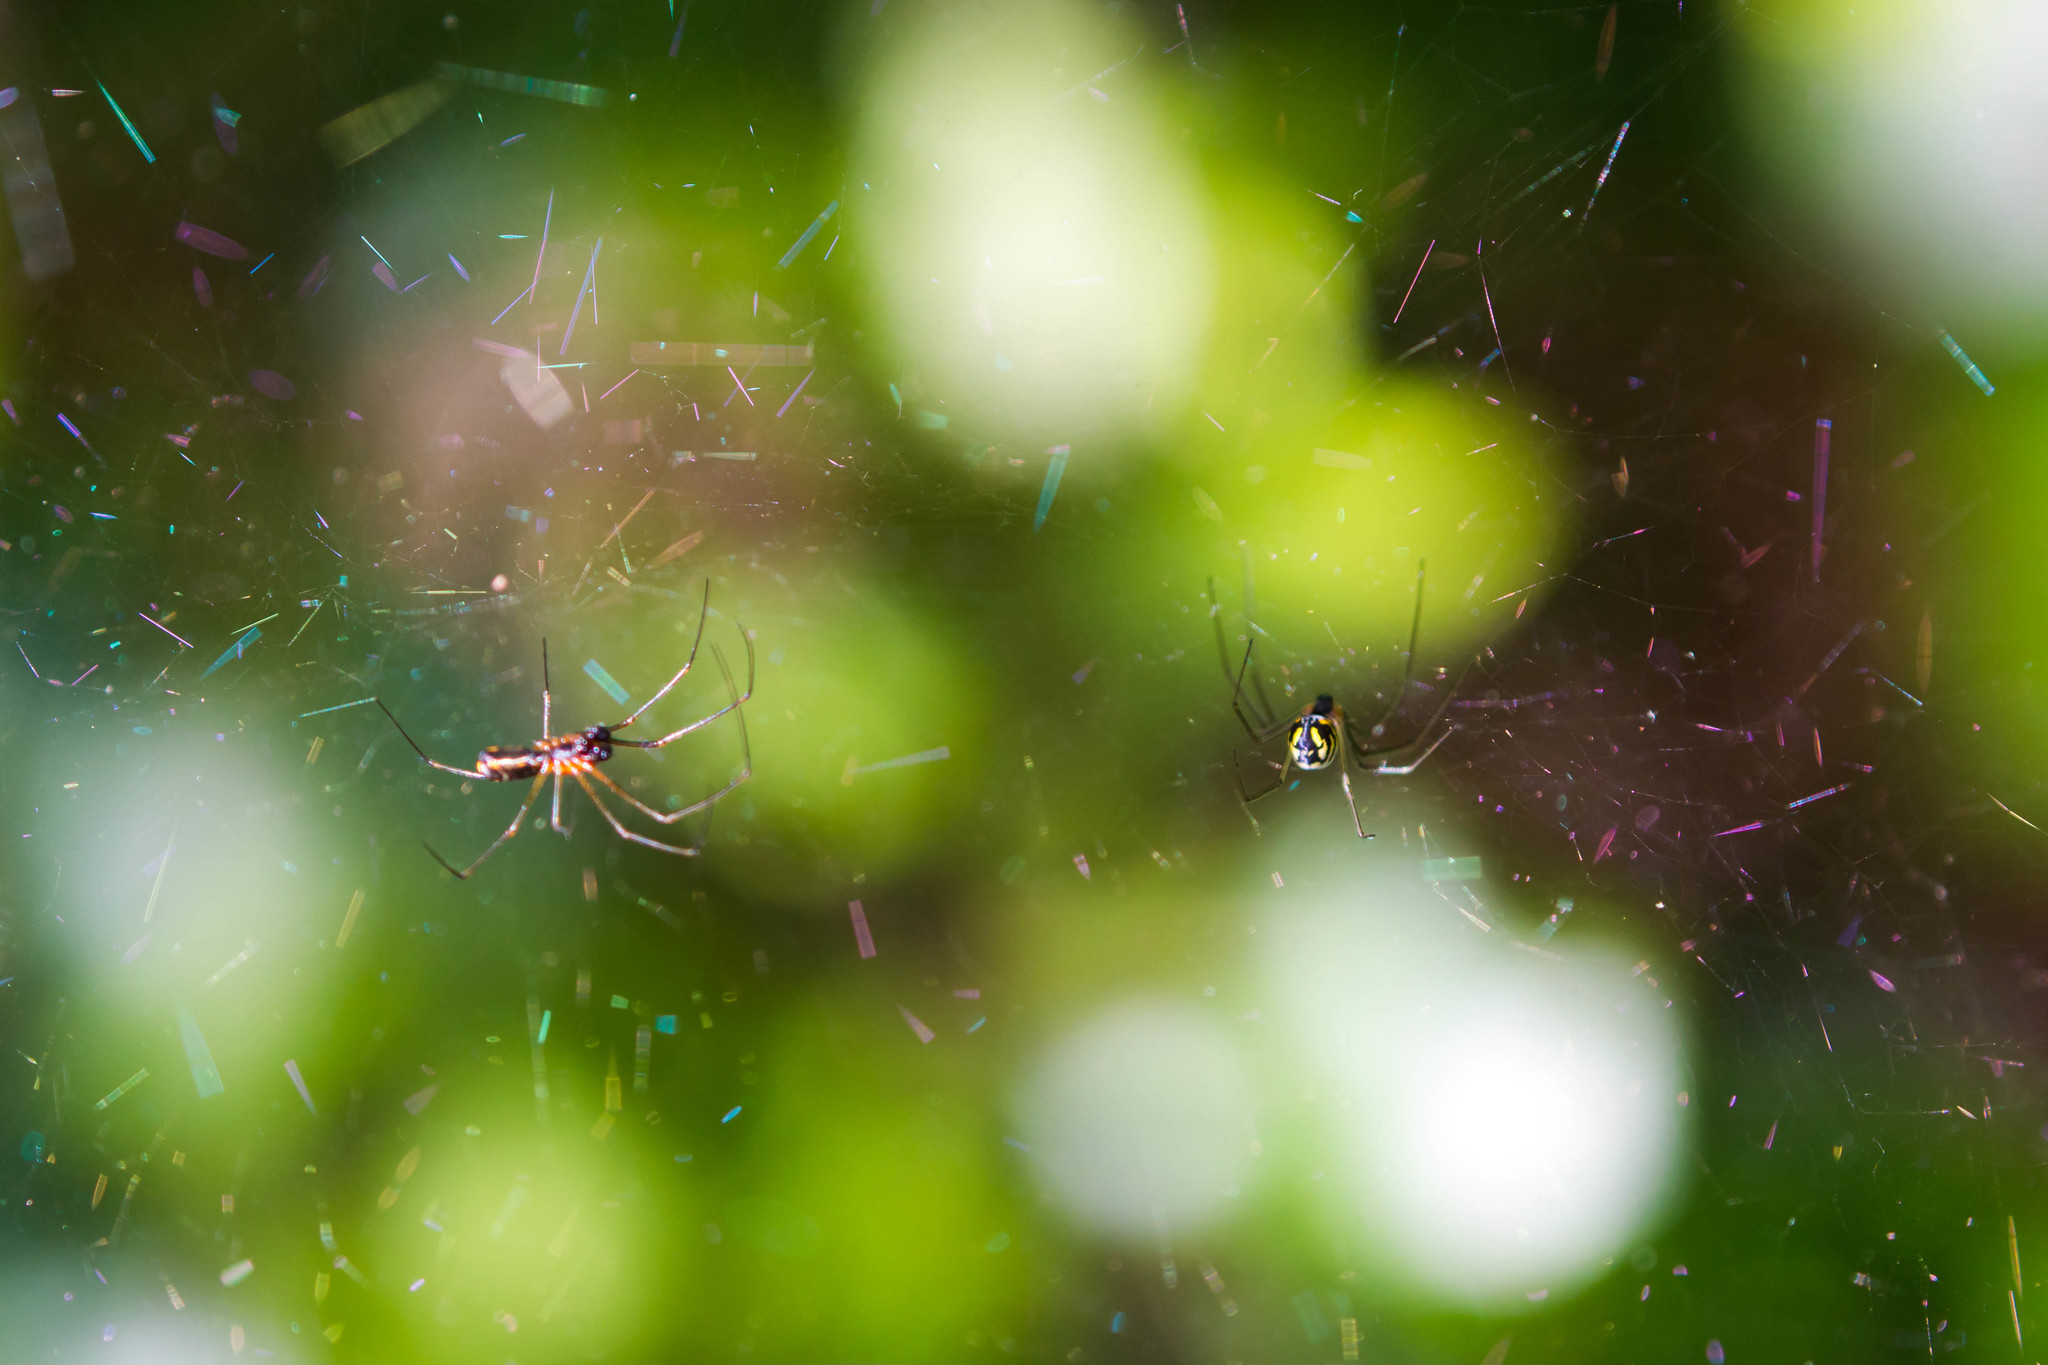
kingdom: Animalia
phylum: Arthropoda
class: Arachnida
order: Araneae
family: Linyphiidae
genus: Neriene
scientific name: Neriene radiata
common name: Filmy dome spider
